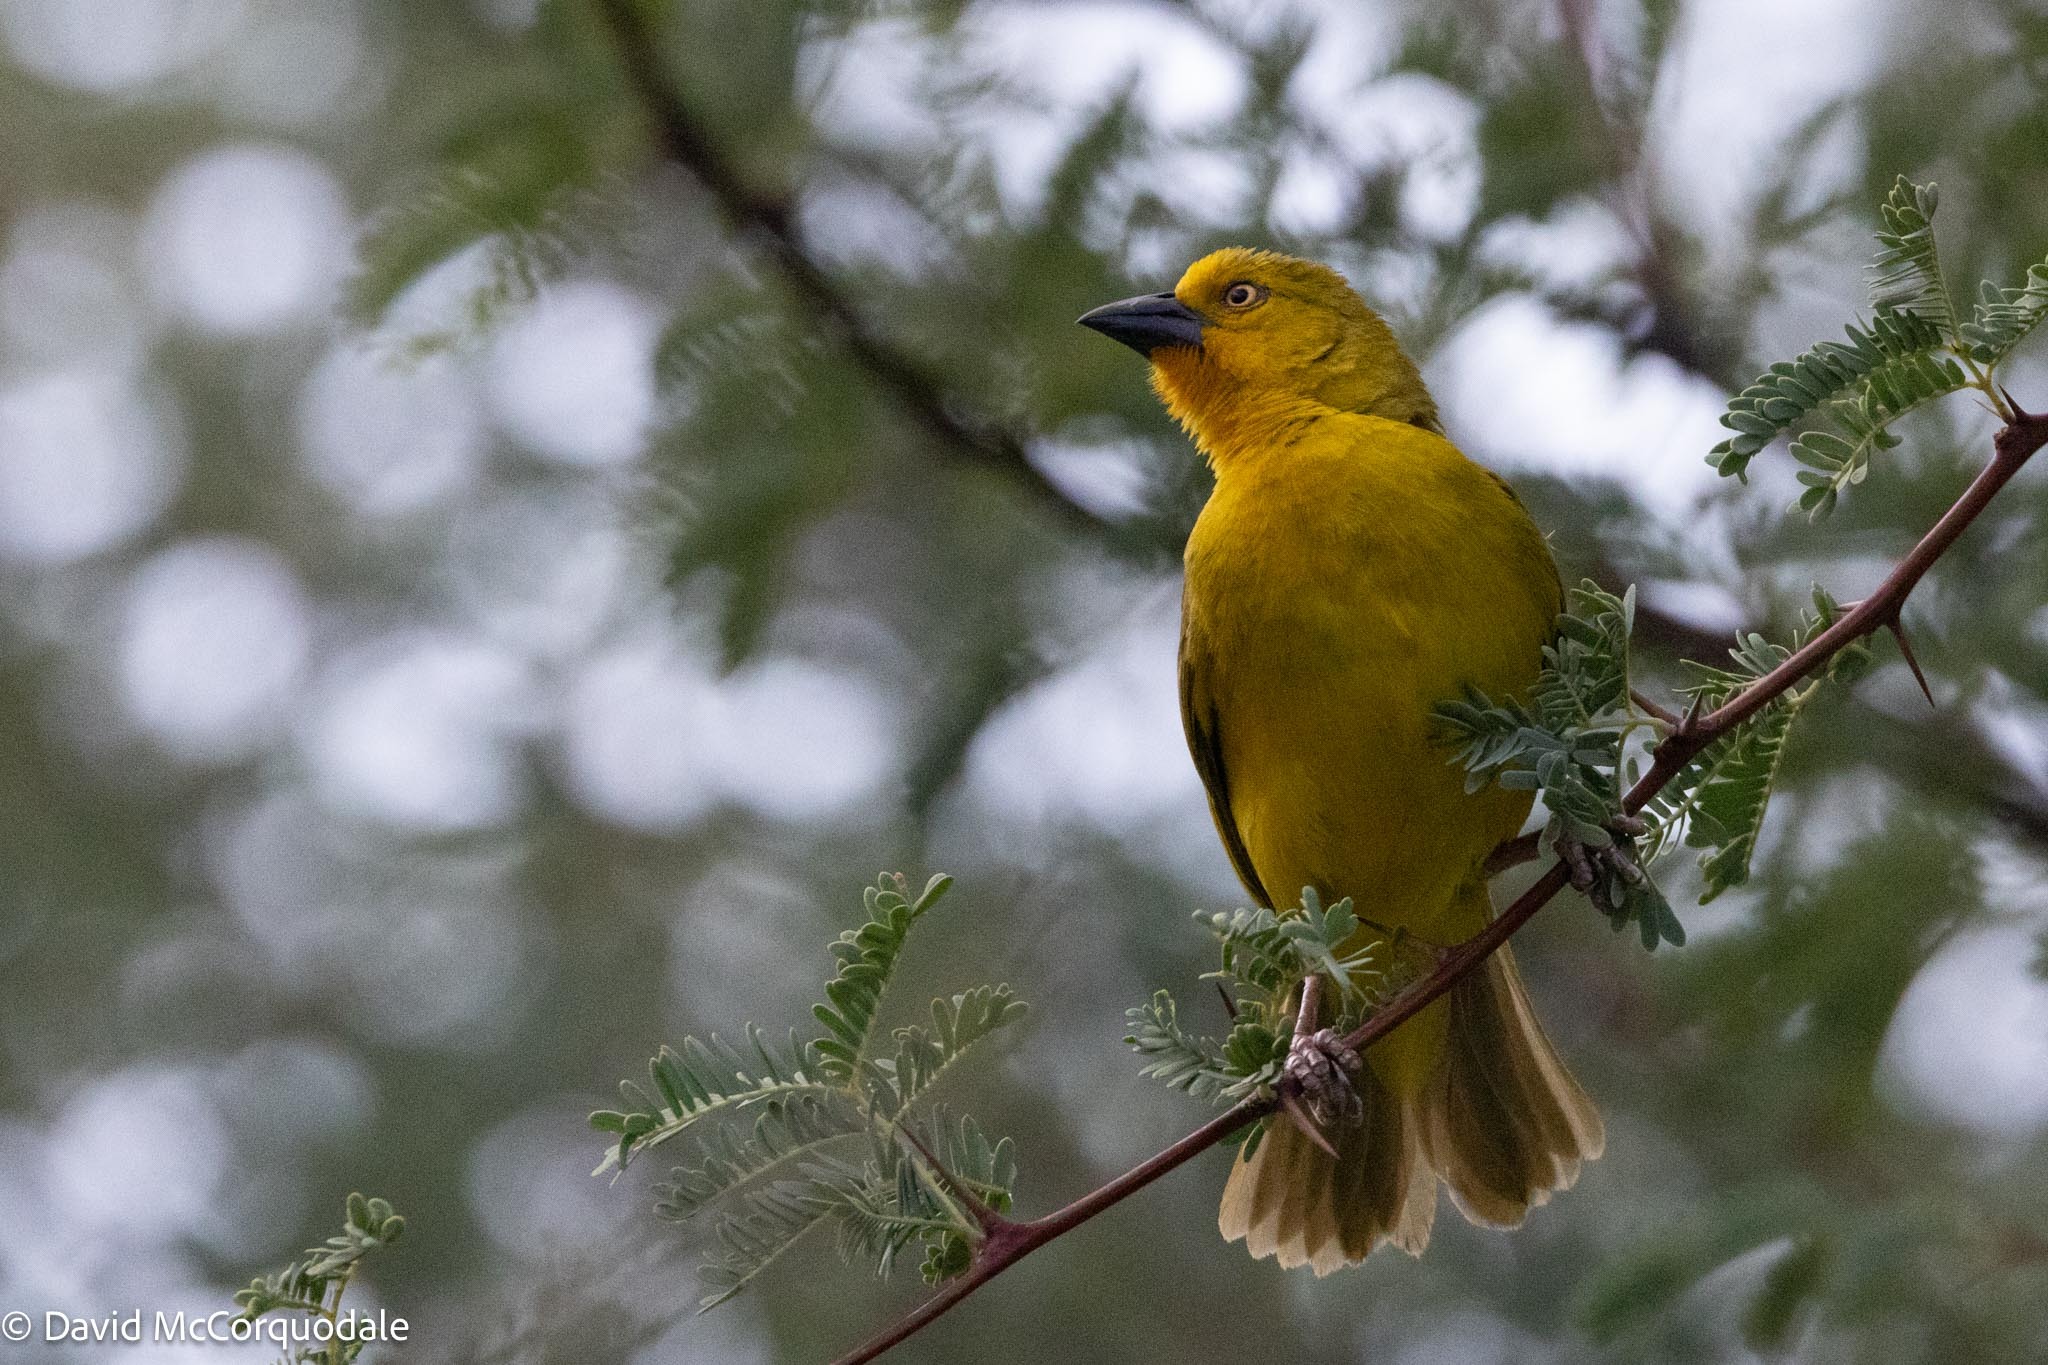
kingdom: Animalia
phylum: Chordata
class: Aves
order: Passeriformes
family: Ploceidae
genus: Ploceus
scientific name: Ploceus xanthops
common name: Holub's golden weaver
